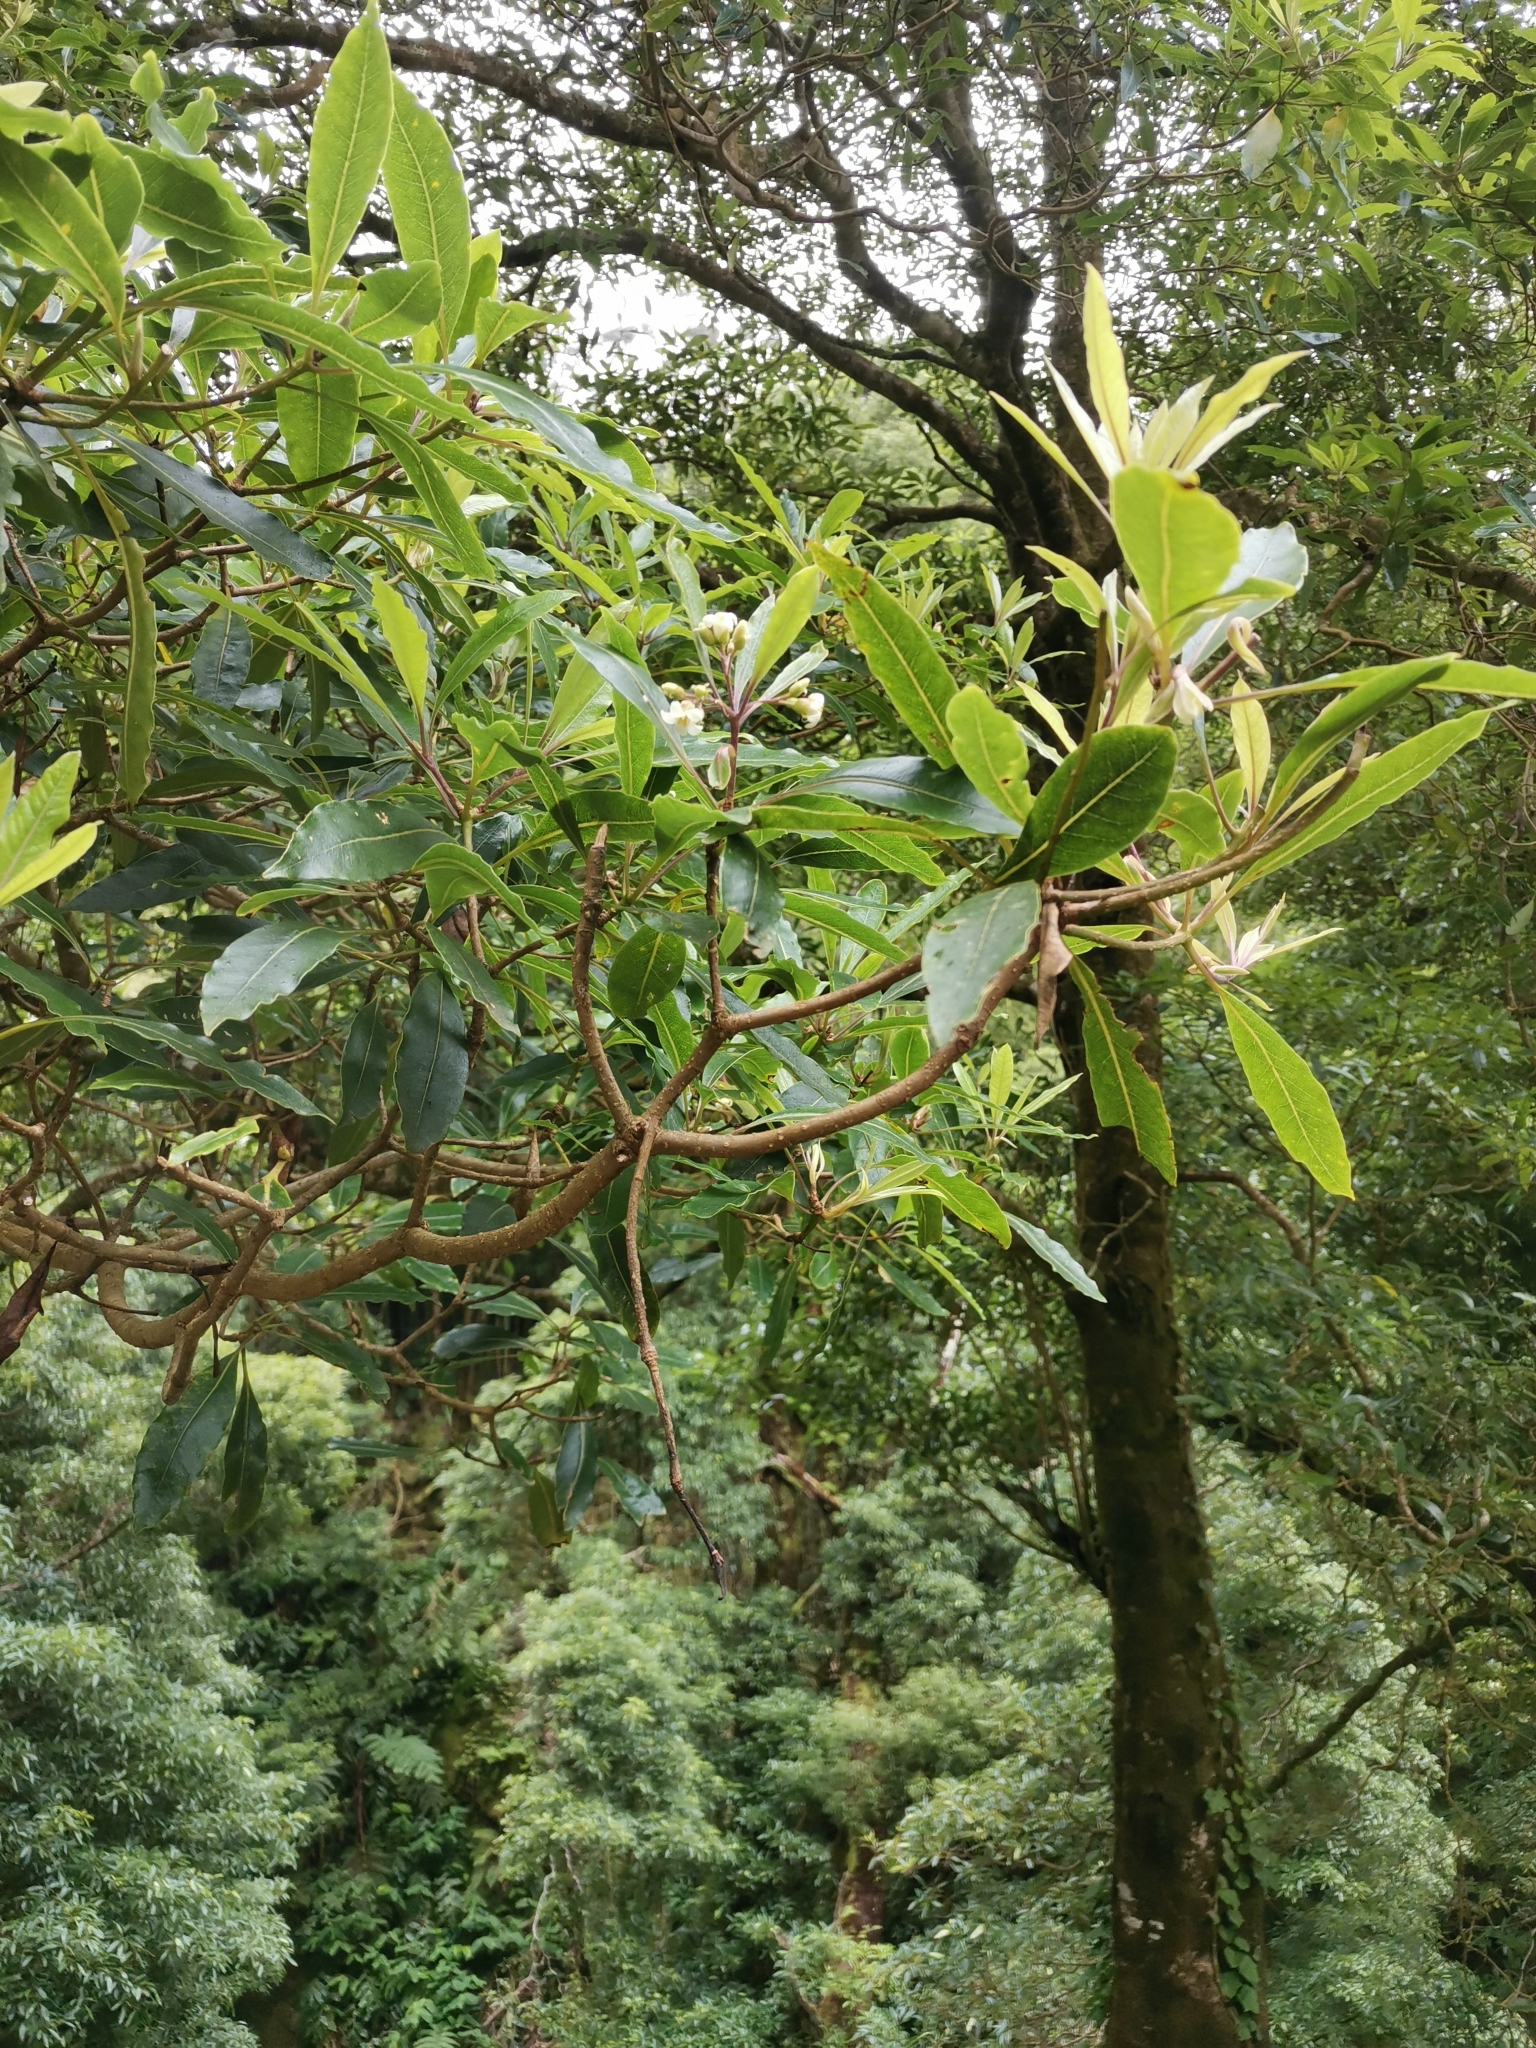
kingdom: Plantae
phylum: Tracheophyta
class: Magnoliopsida
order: Apiales
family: Pittosporaceae
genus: Pittosporum
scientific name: Pittosporum undulatum
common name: Australian cheesewood
